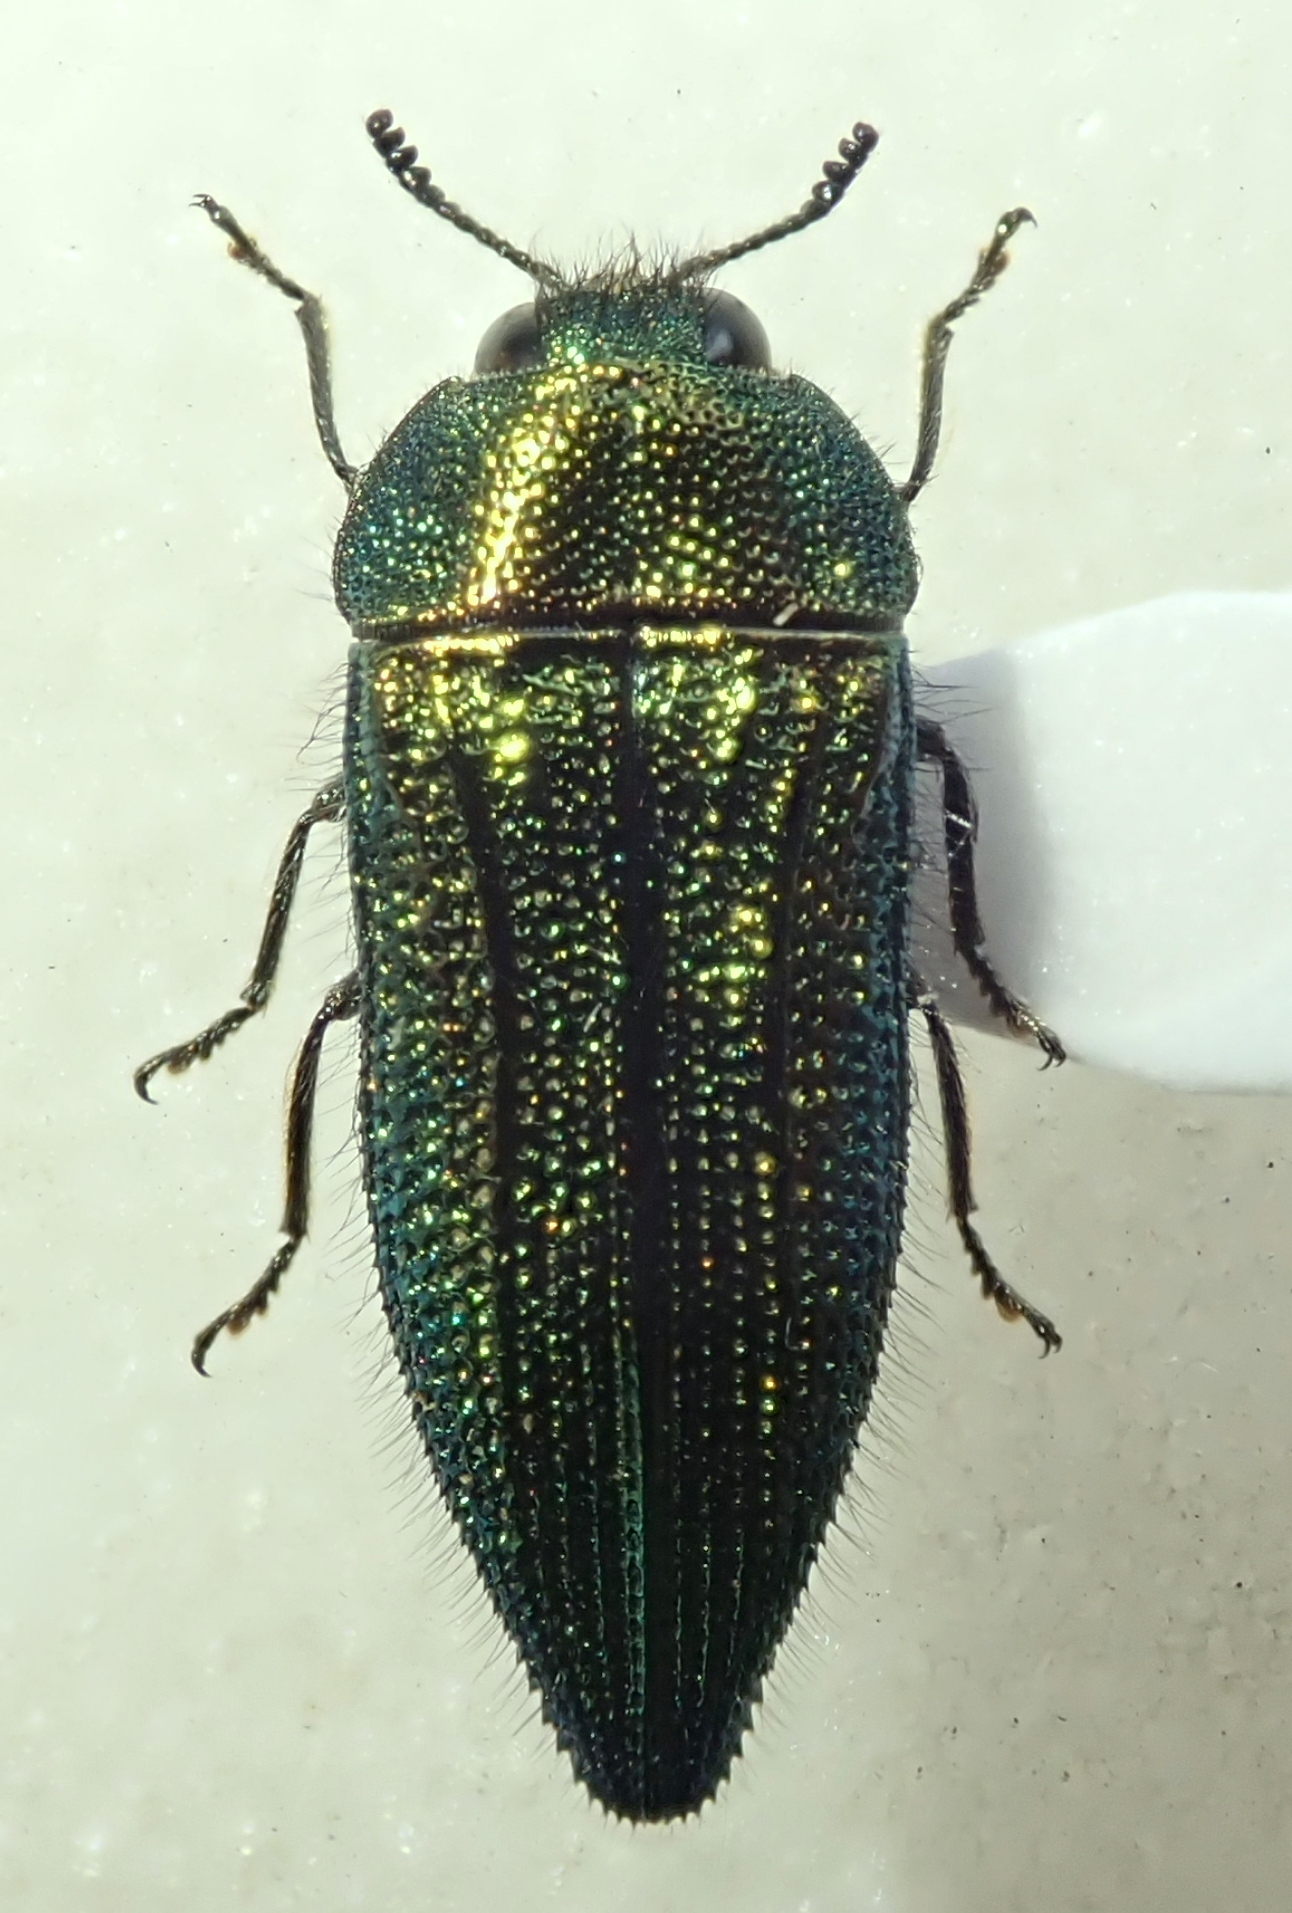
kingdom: Animalia
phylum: Arthropoda
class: Insecta
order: Coleoptera
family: Buprestidae
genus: Acmaeodera
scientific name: Acmaeodera resplendens
